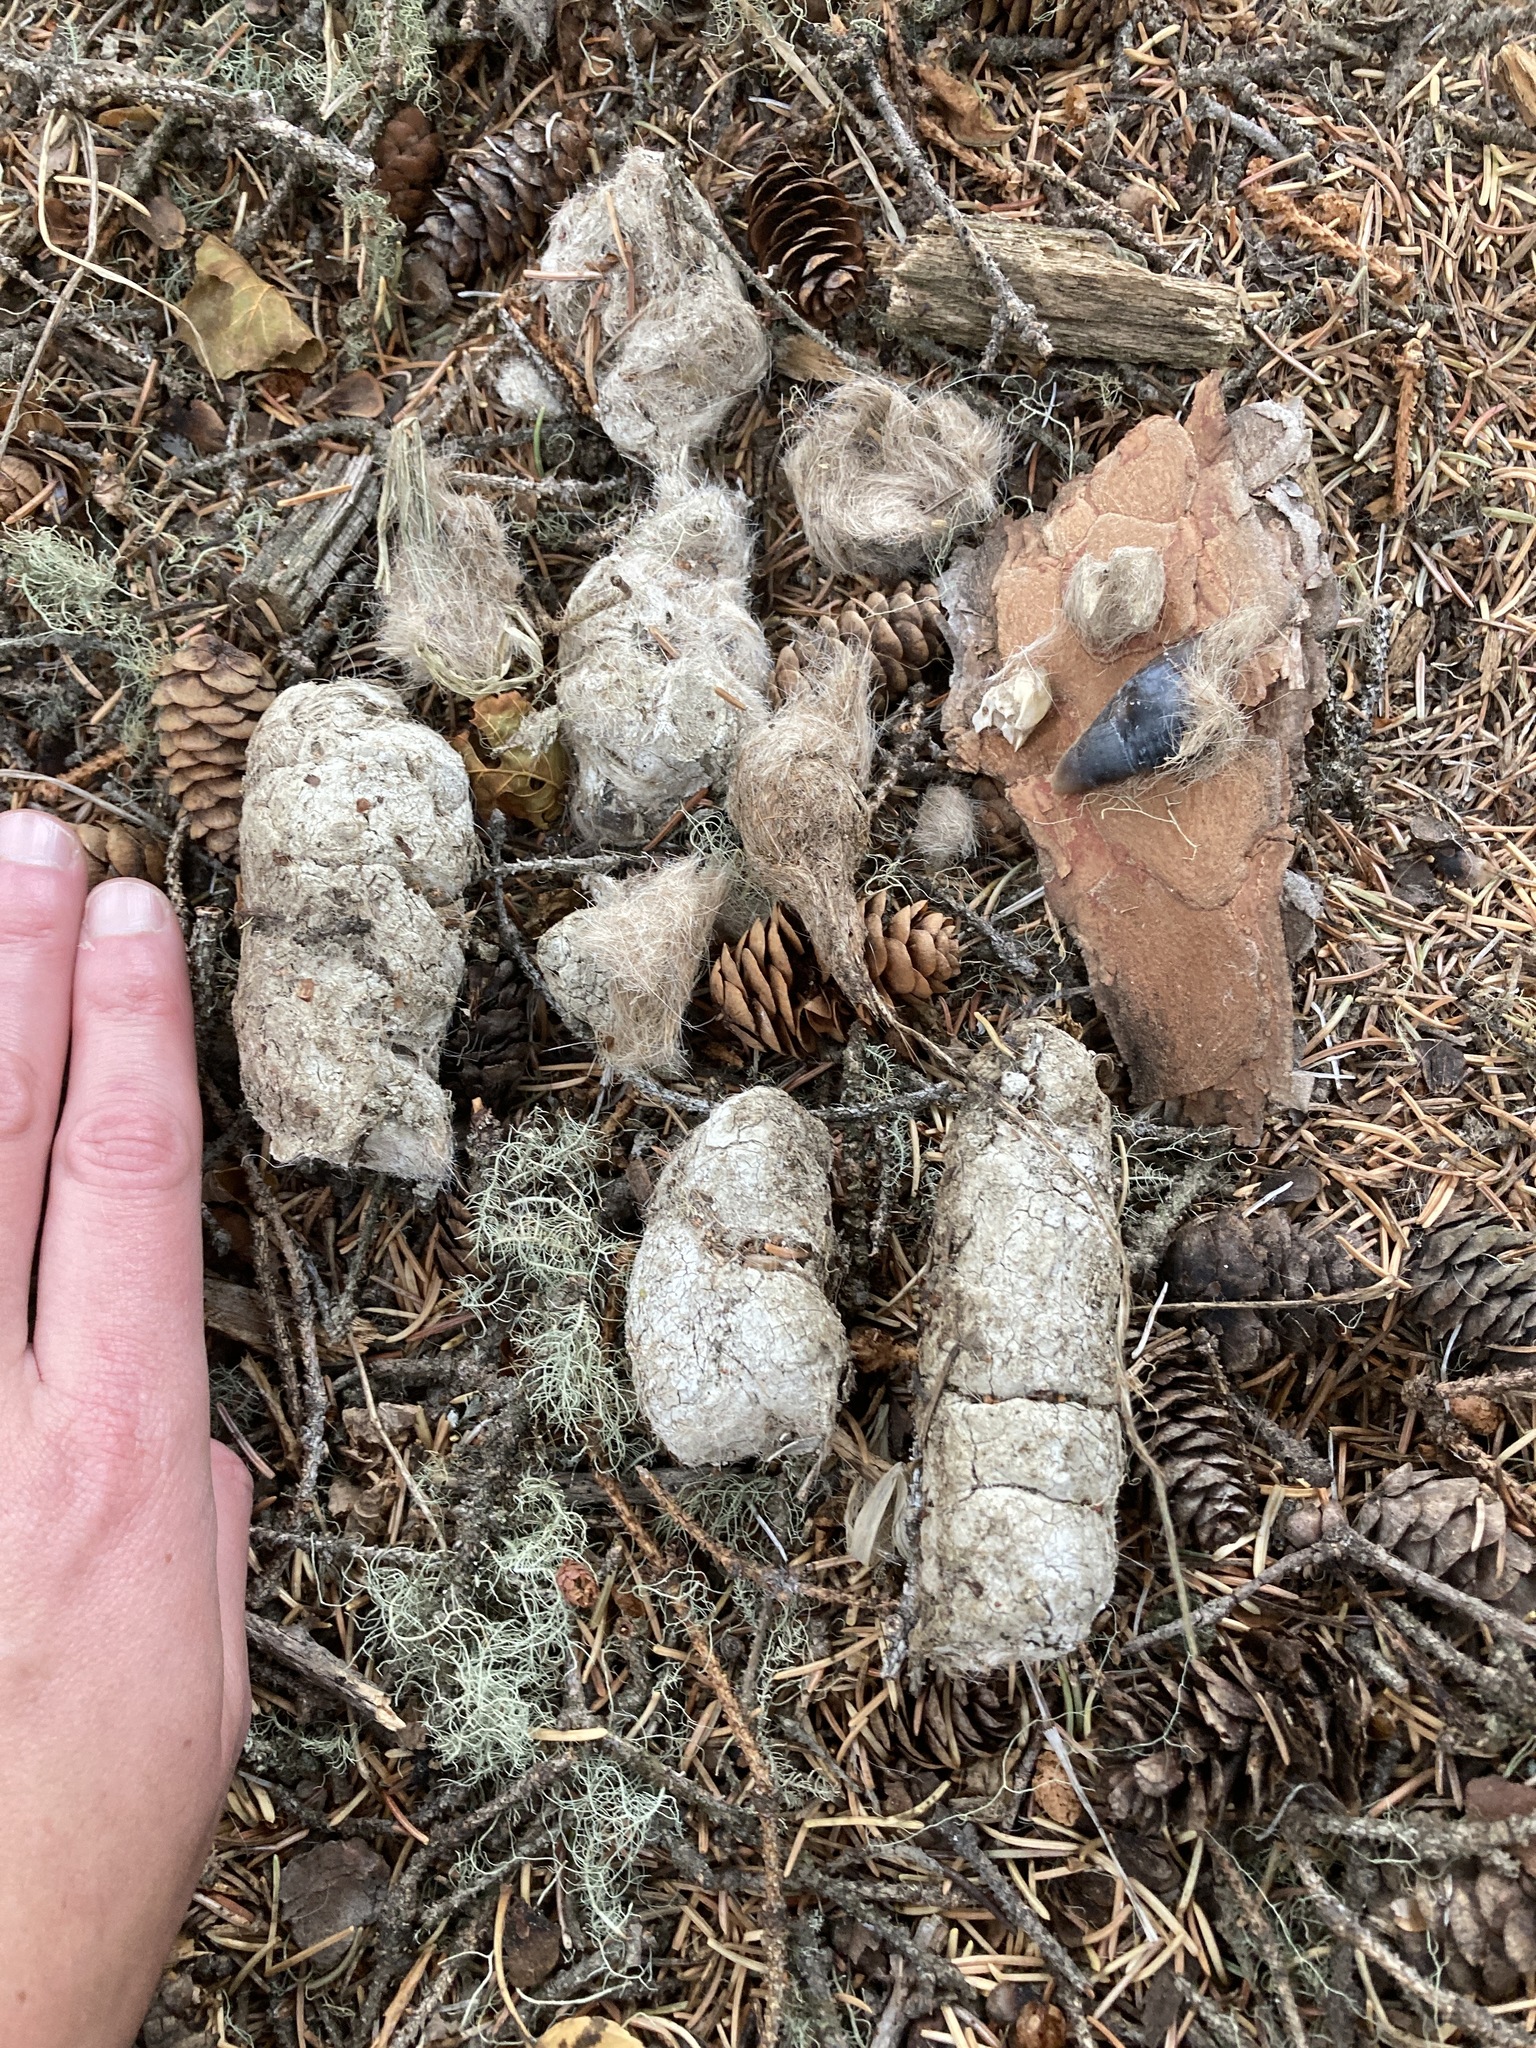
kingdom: Animalia
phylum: Chordata
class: Mammalia
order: Carnivora
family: Felidae
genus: Puma
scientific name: Puma concolor
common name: Puma
